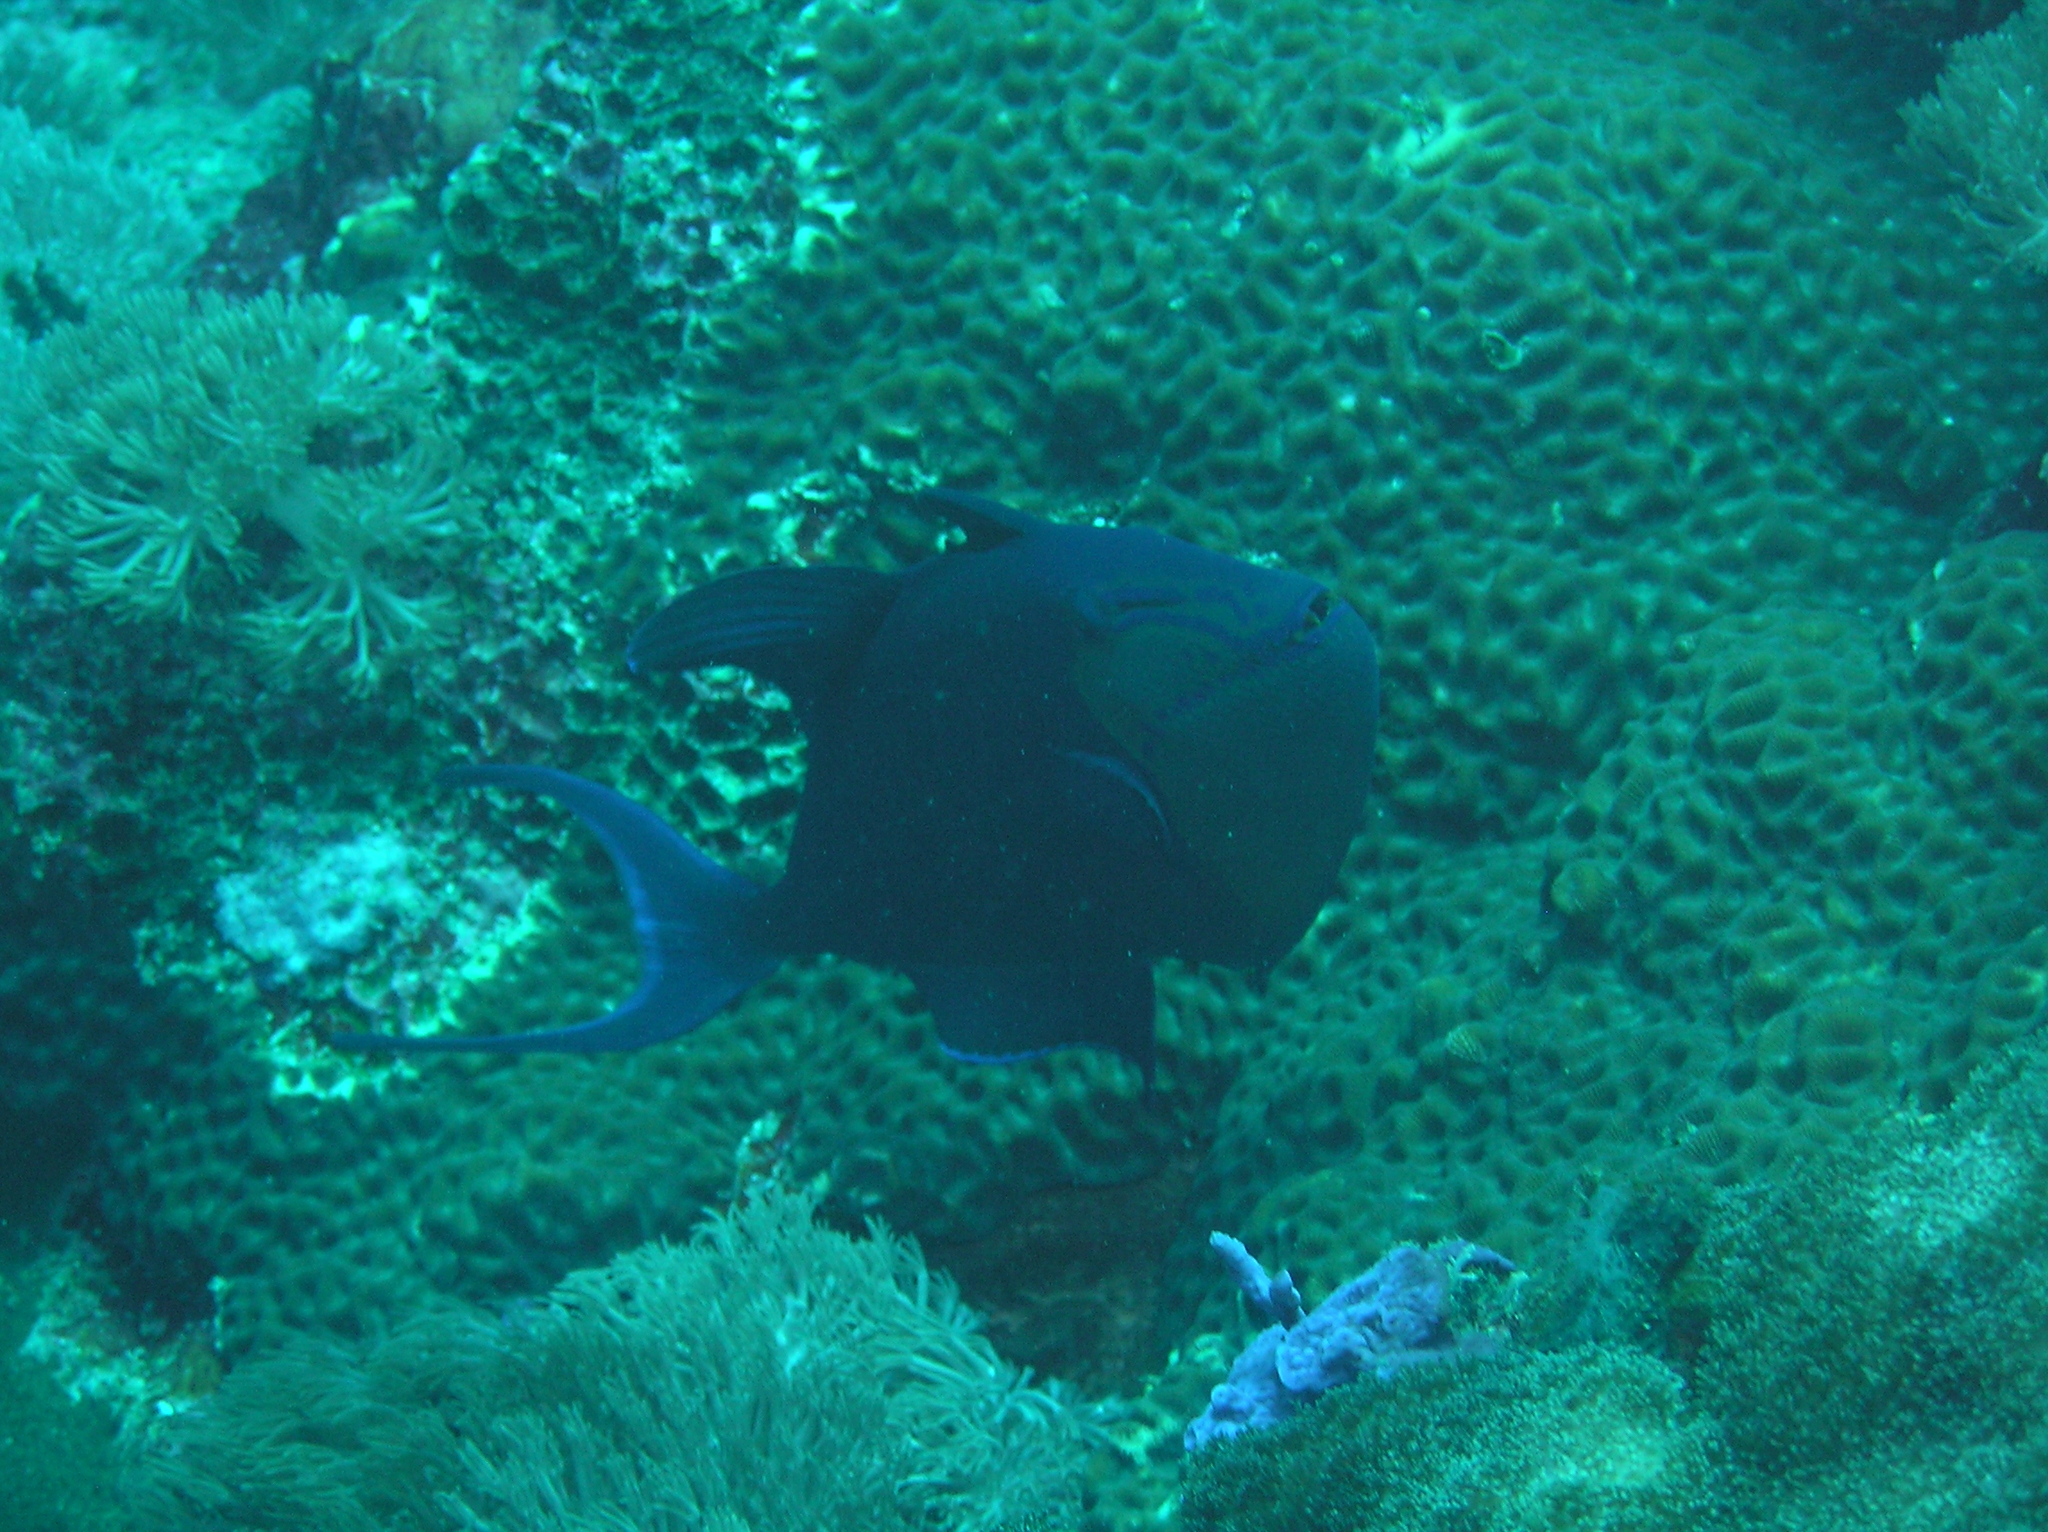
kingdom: Animalia
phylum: Chordata
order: Tetraodontiformes
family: Balistidae
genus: Odonus
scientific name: Odonus niger
